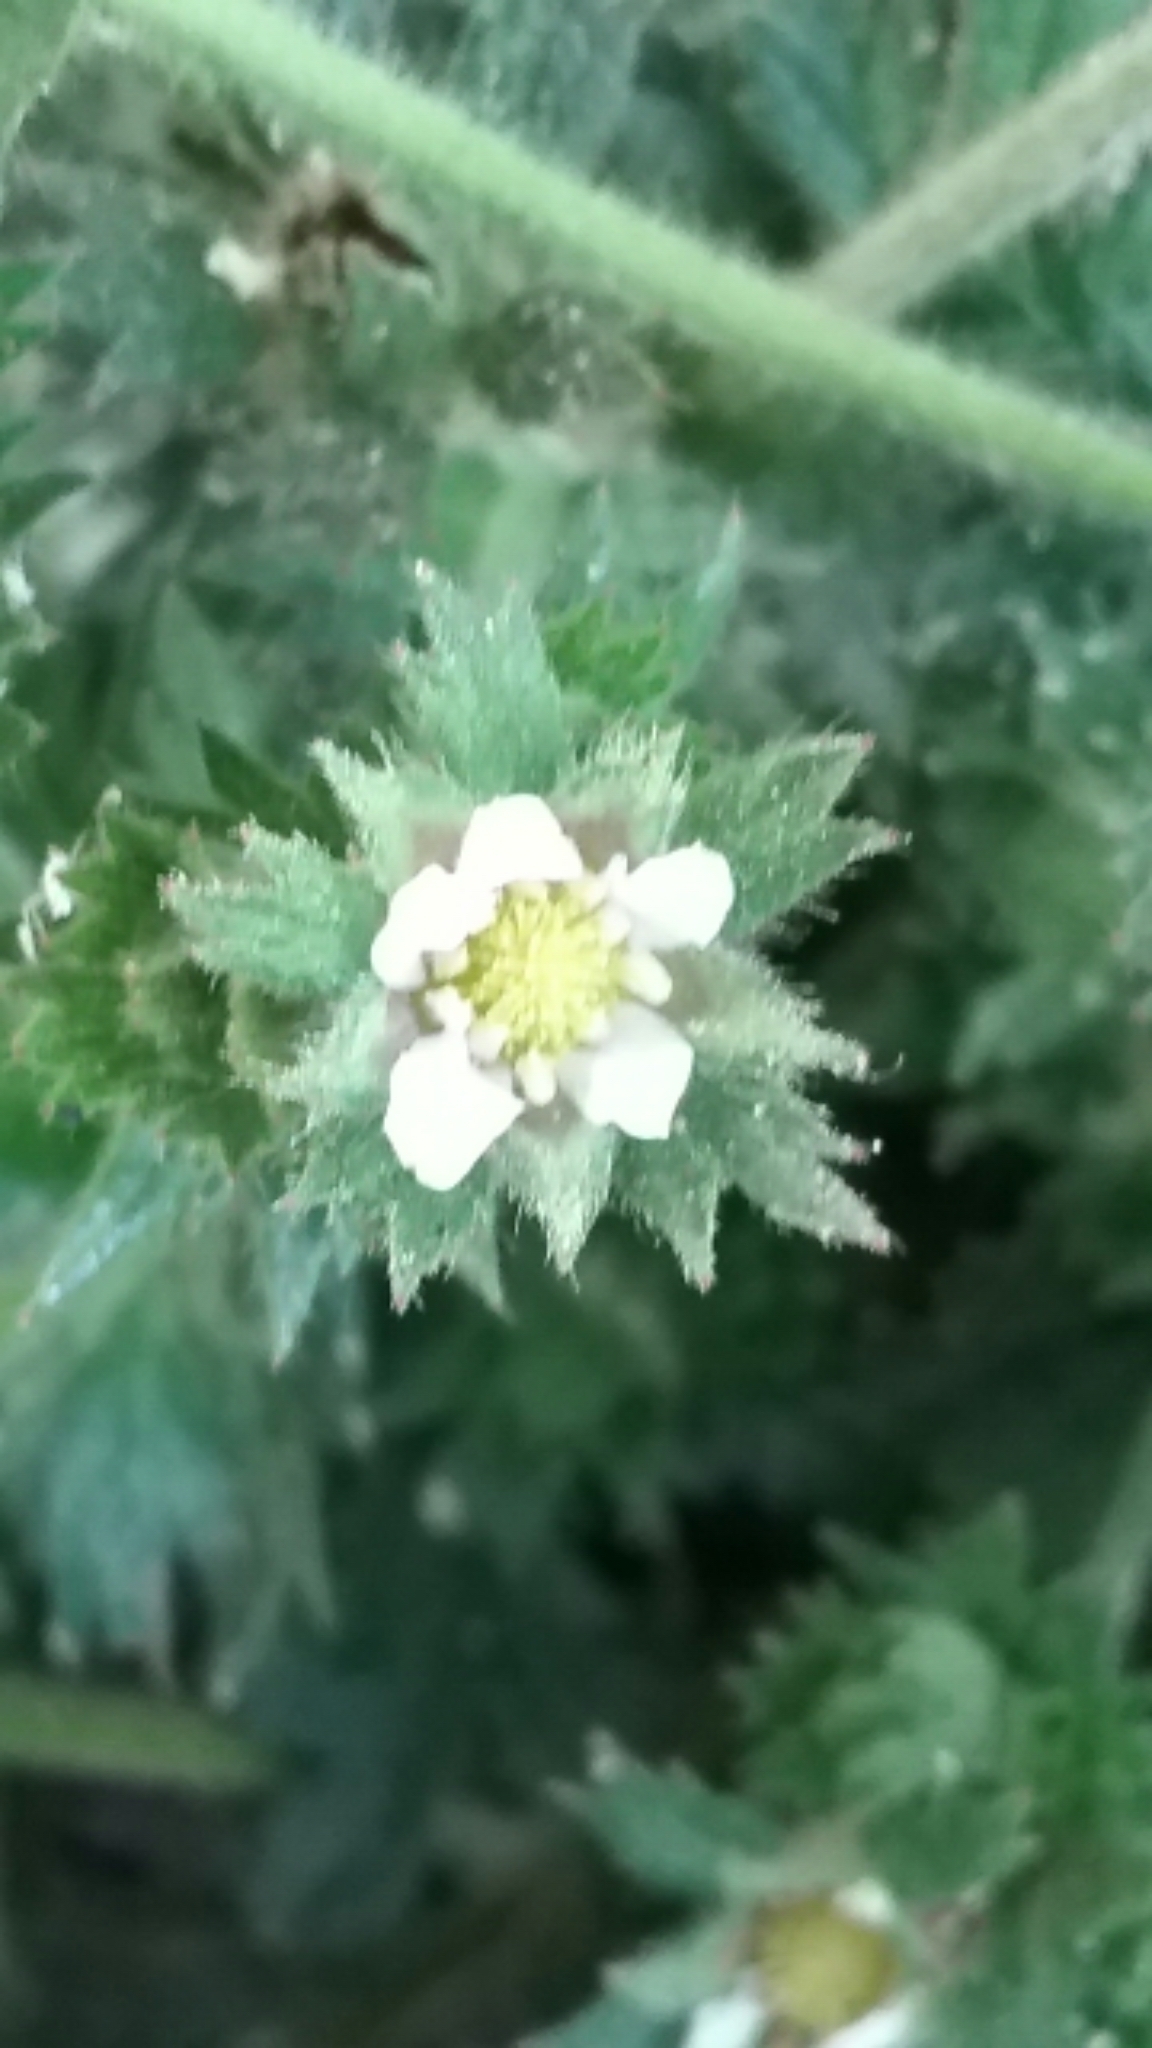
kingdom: Plantae
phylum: Tracheophyta
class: Magnoliopsida
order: Rosales
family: Rosaceae
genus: Potentilla
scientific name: Potentilla californica
